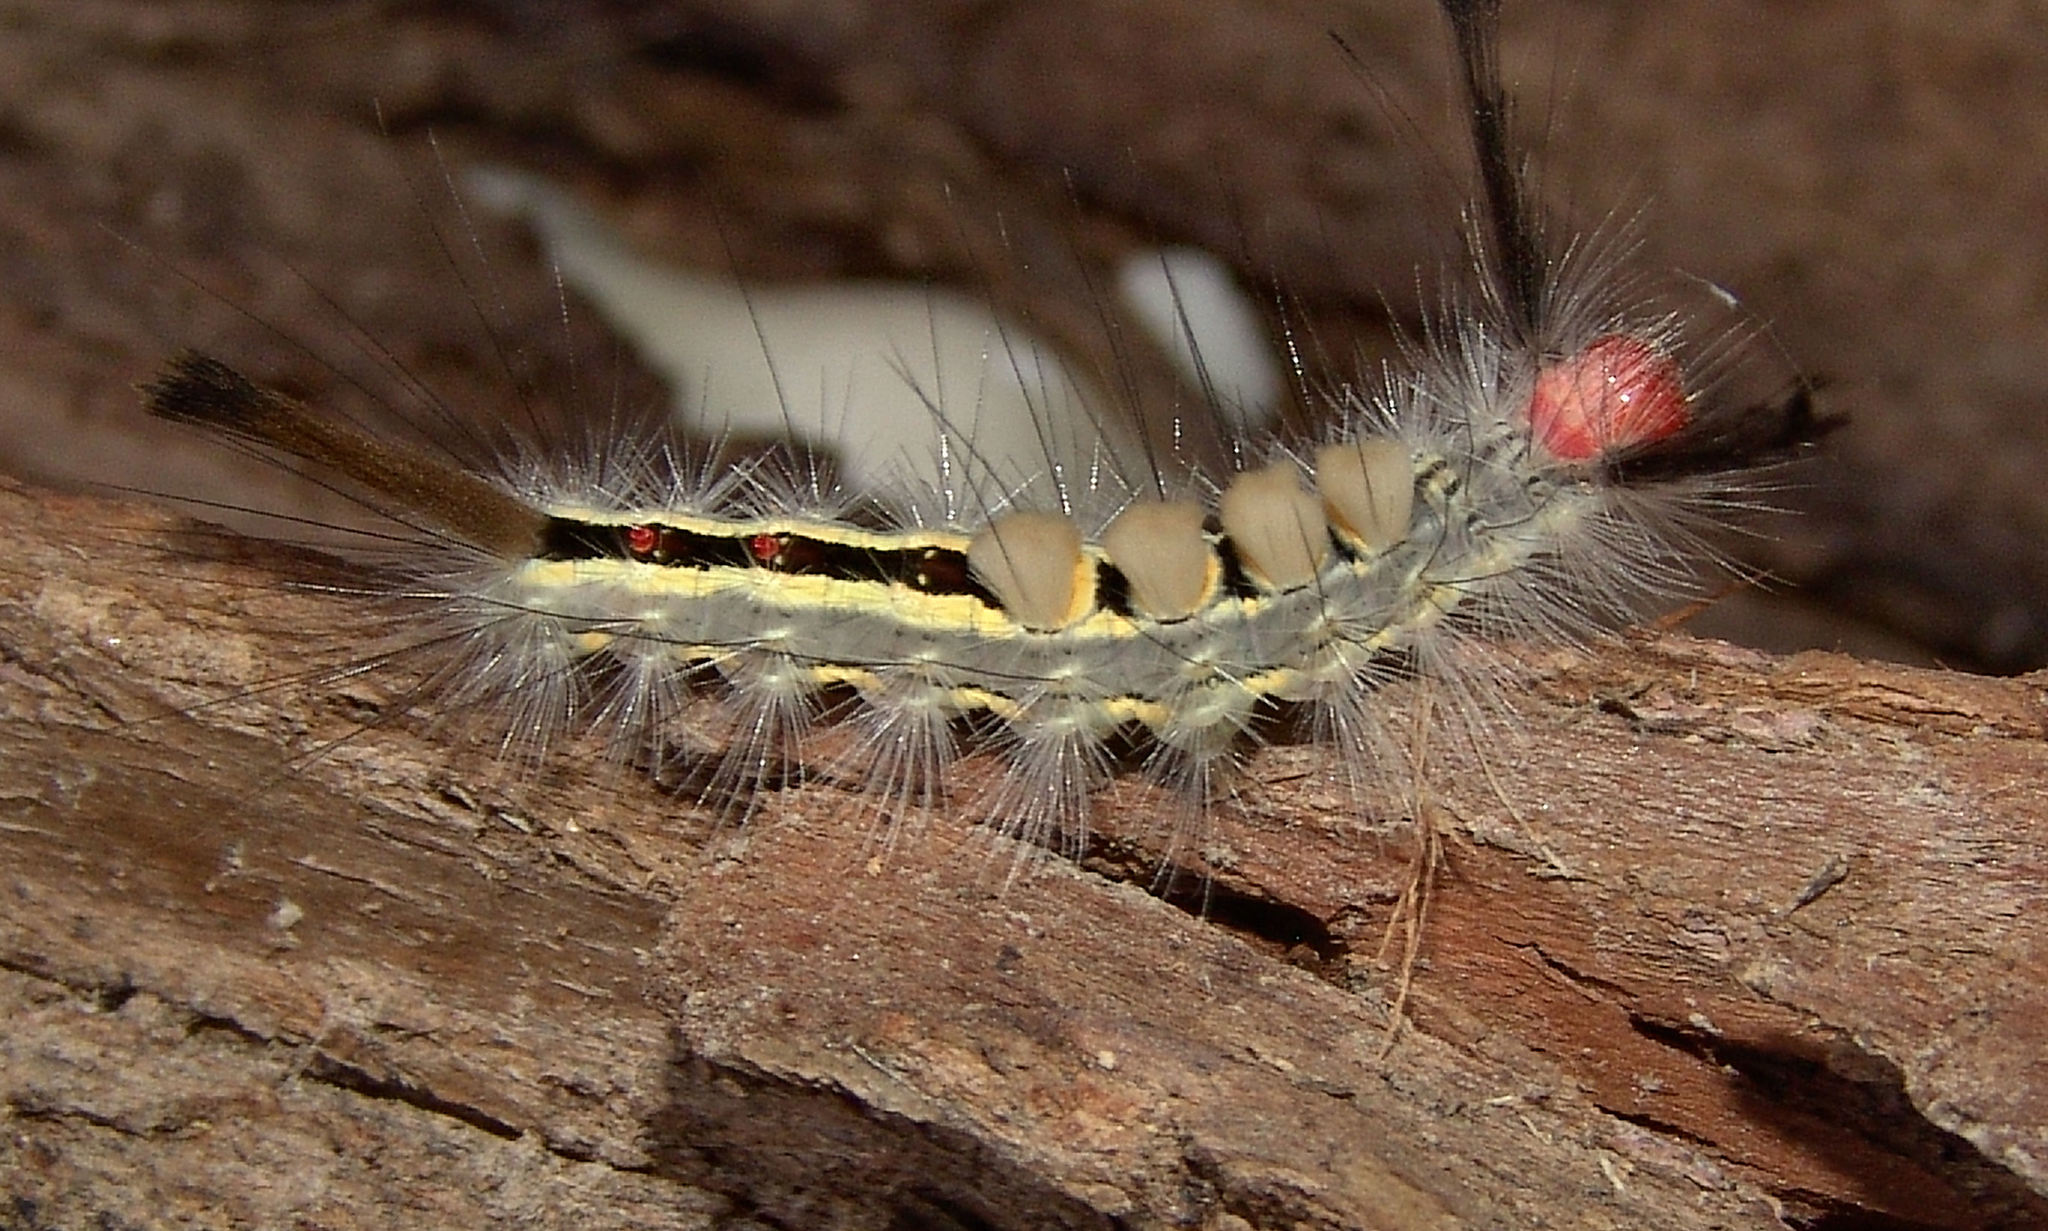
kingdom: Animalia
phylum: Arthropoda
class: Insecta
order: Lepidoptera
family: Erebidae
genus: Orgyia
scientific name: Orgyia leucostigma
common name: White-marked tussock moth
